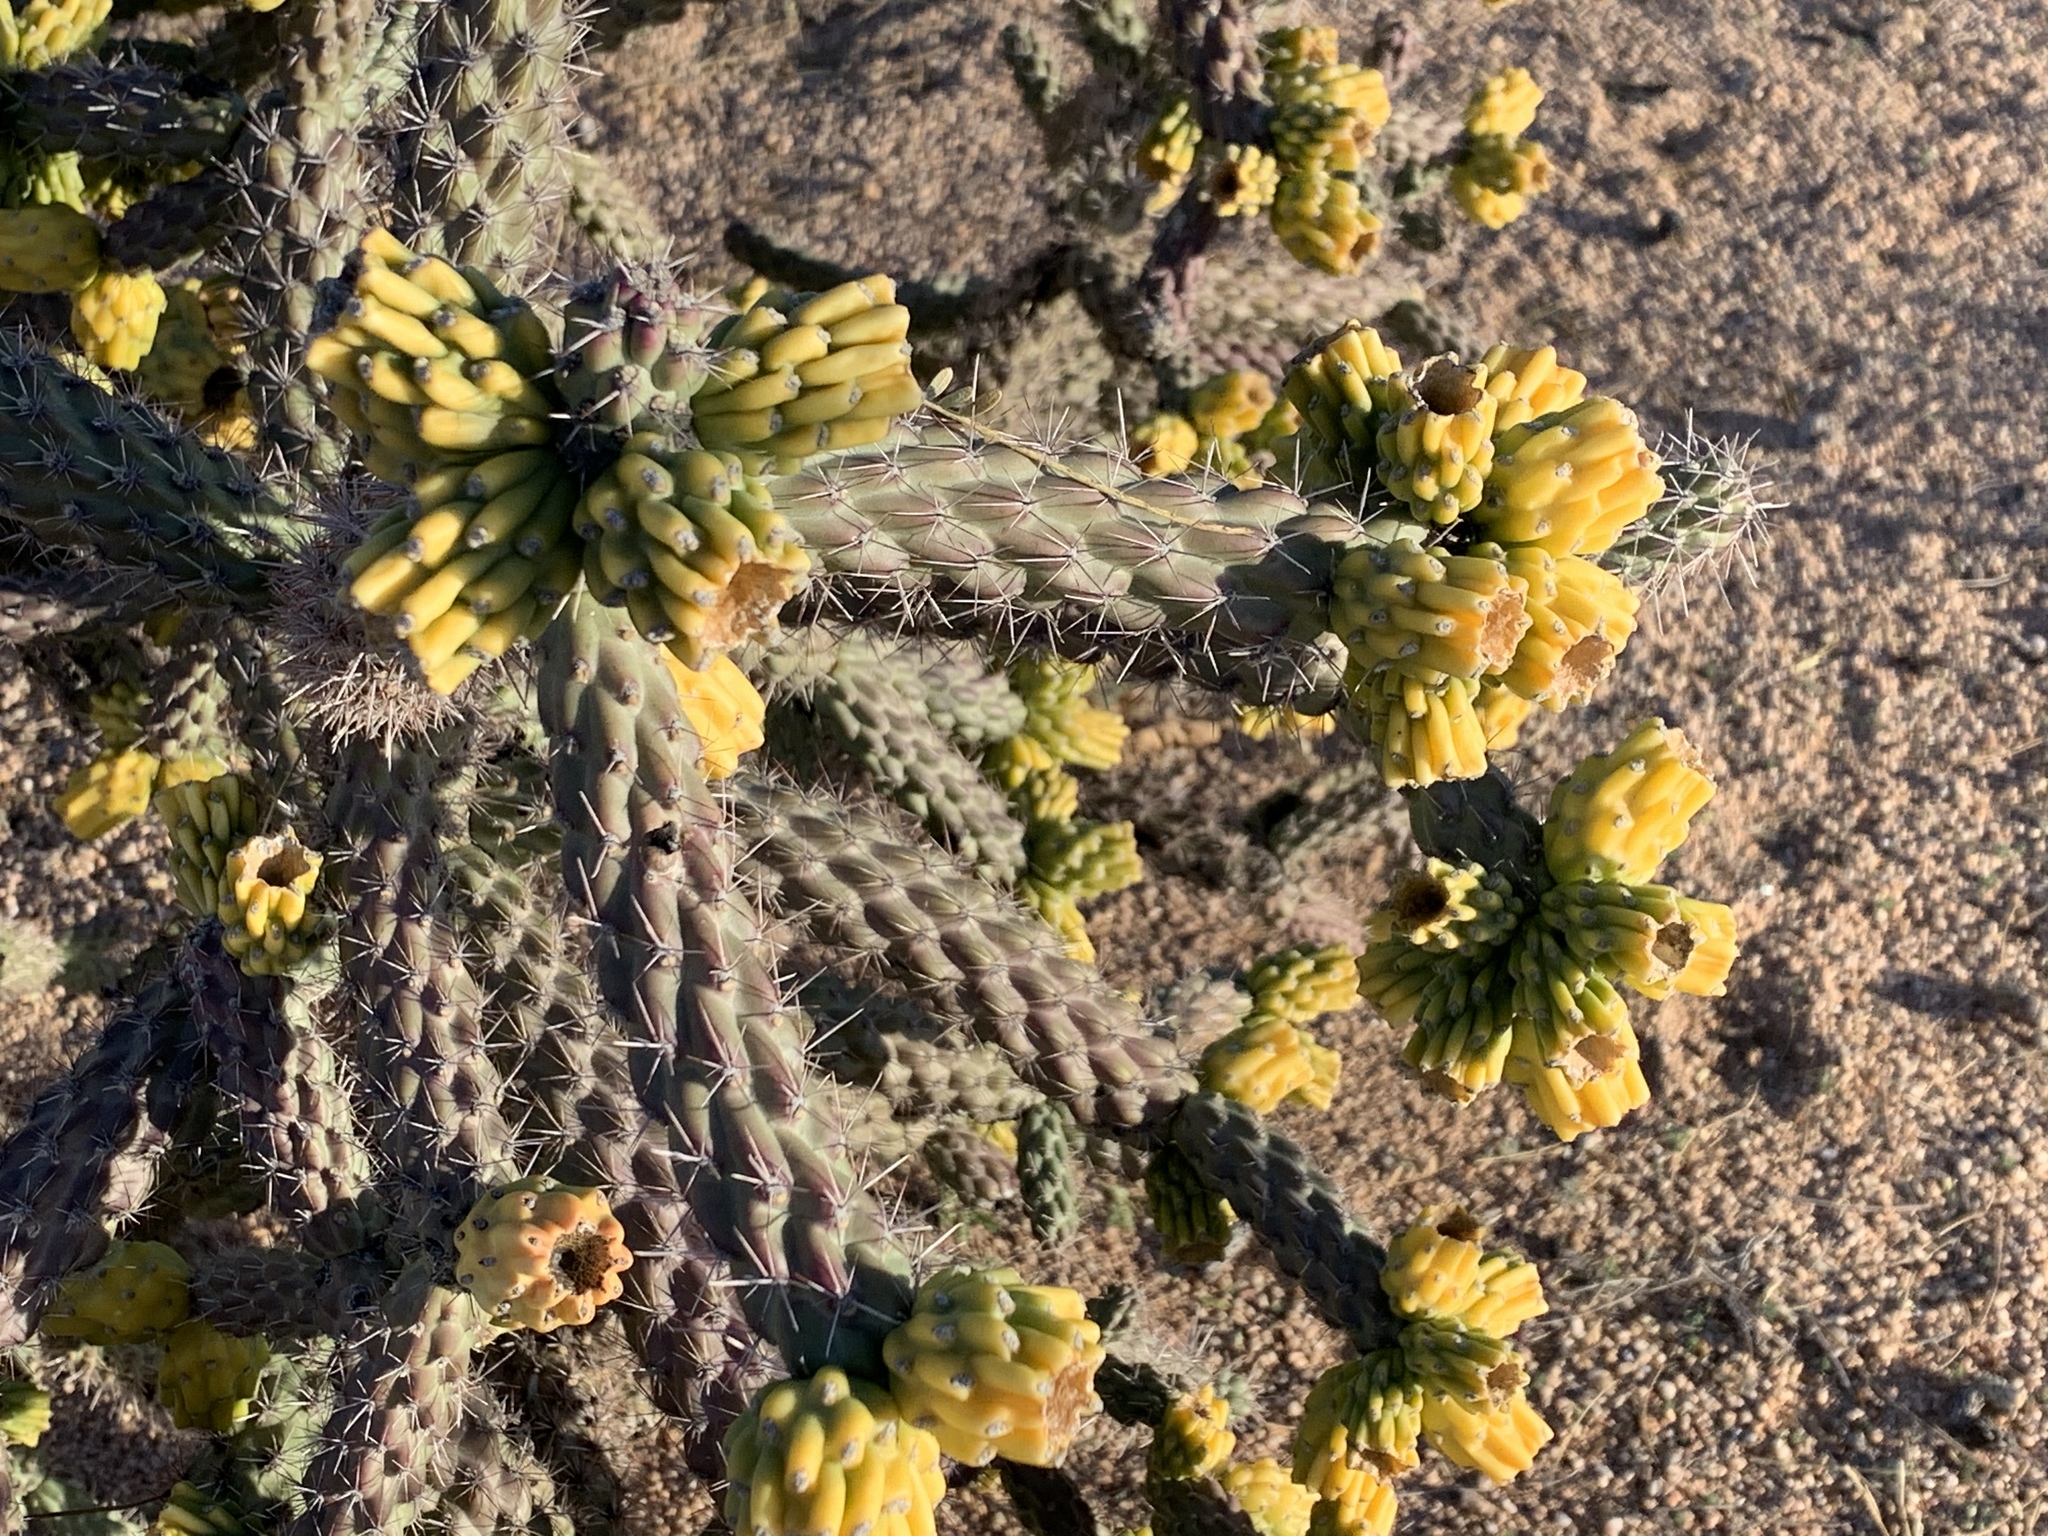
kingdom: Plantae
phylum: Tracheophyta
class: Magnoliopsida
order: Caryophyllales
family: Cactaceae
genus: Cylindropuntia
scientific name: Cylindropuntia imbricata
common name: Candelabrum cactus
